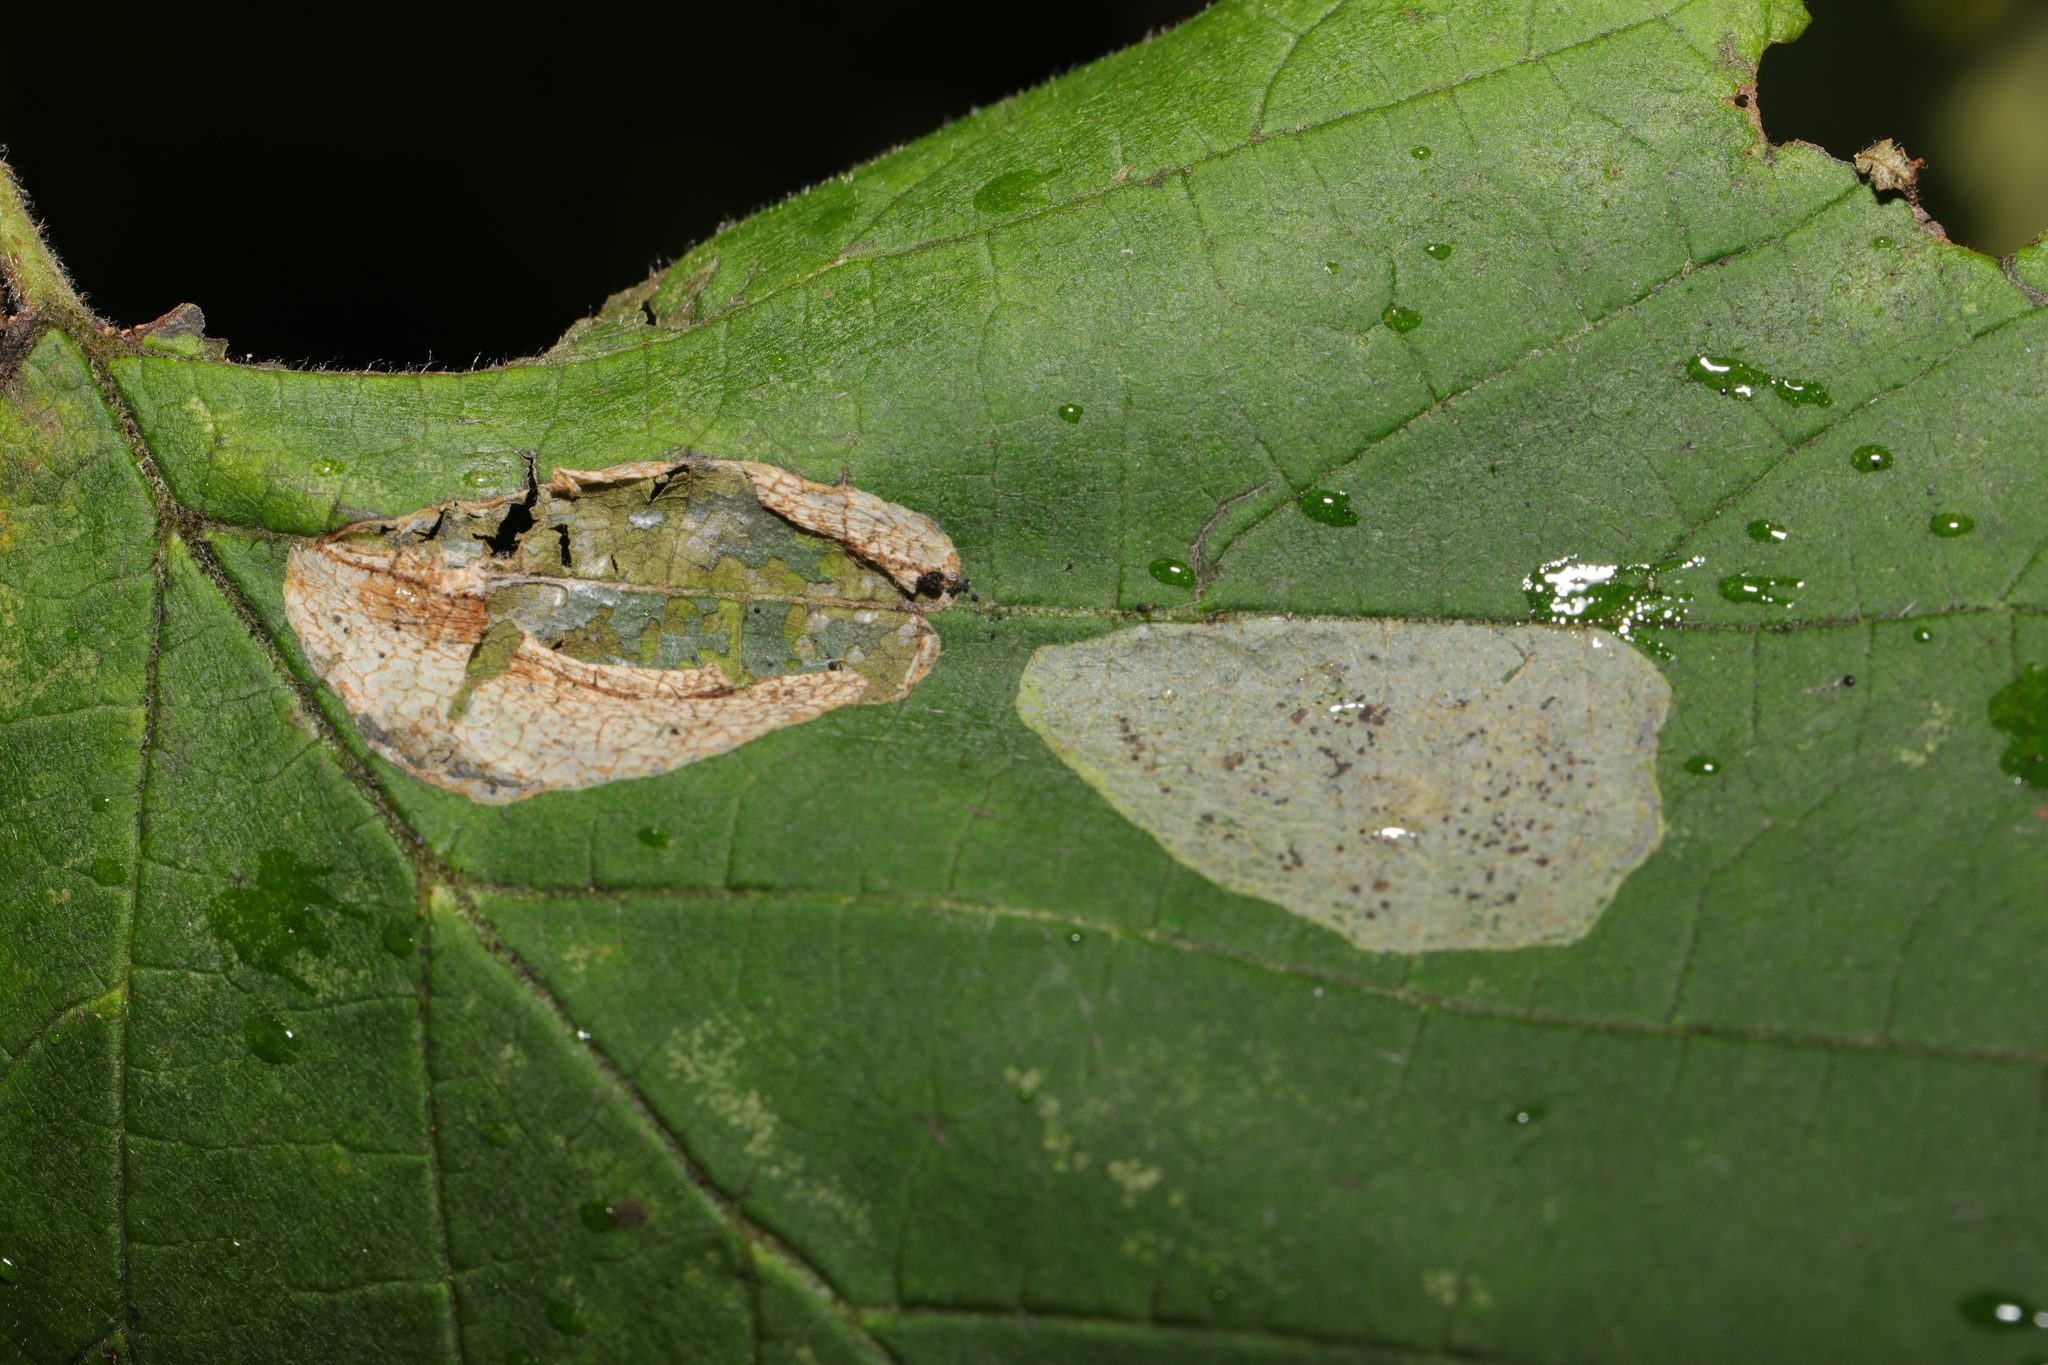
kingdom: Animalia
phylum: Arthropoda
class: Insecta
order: Lepidoptera
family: Gracillariidae
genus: Phyllonorycter
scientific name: Phyllonorycter coryli
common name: Nut-leaf blister moth
